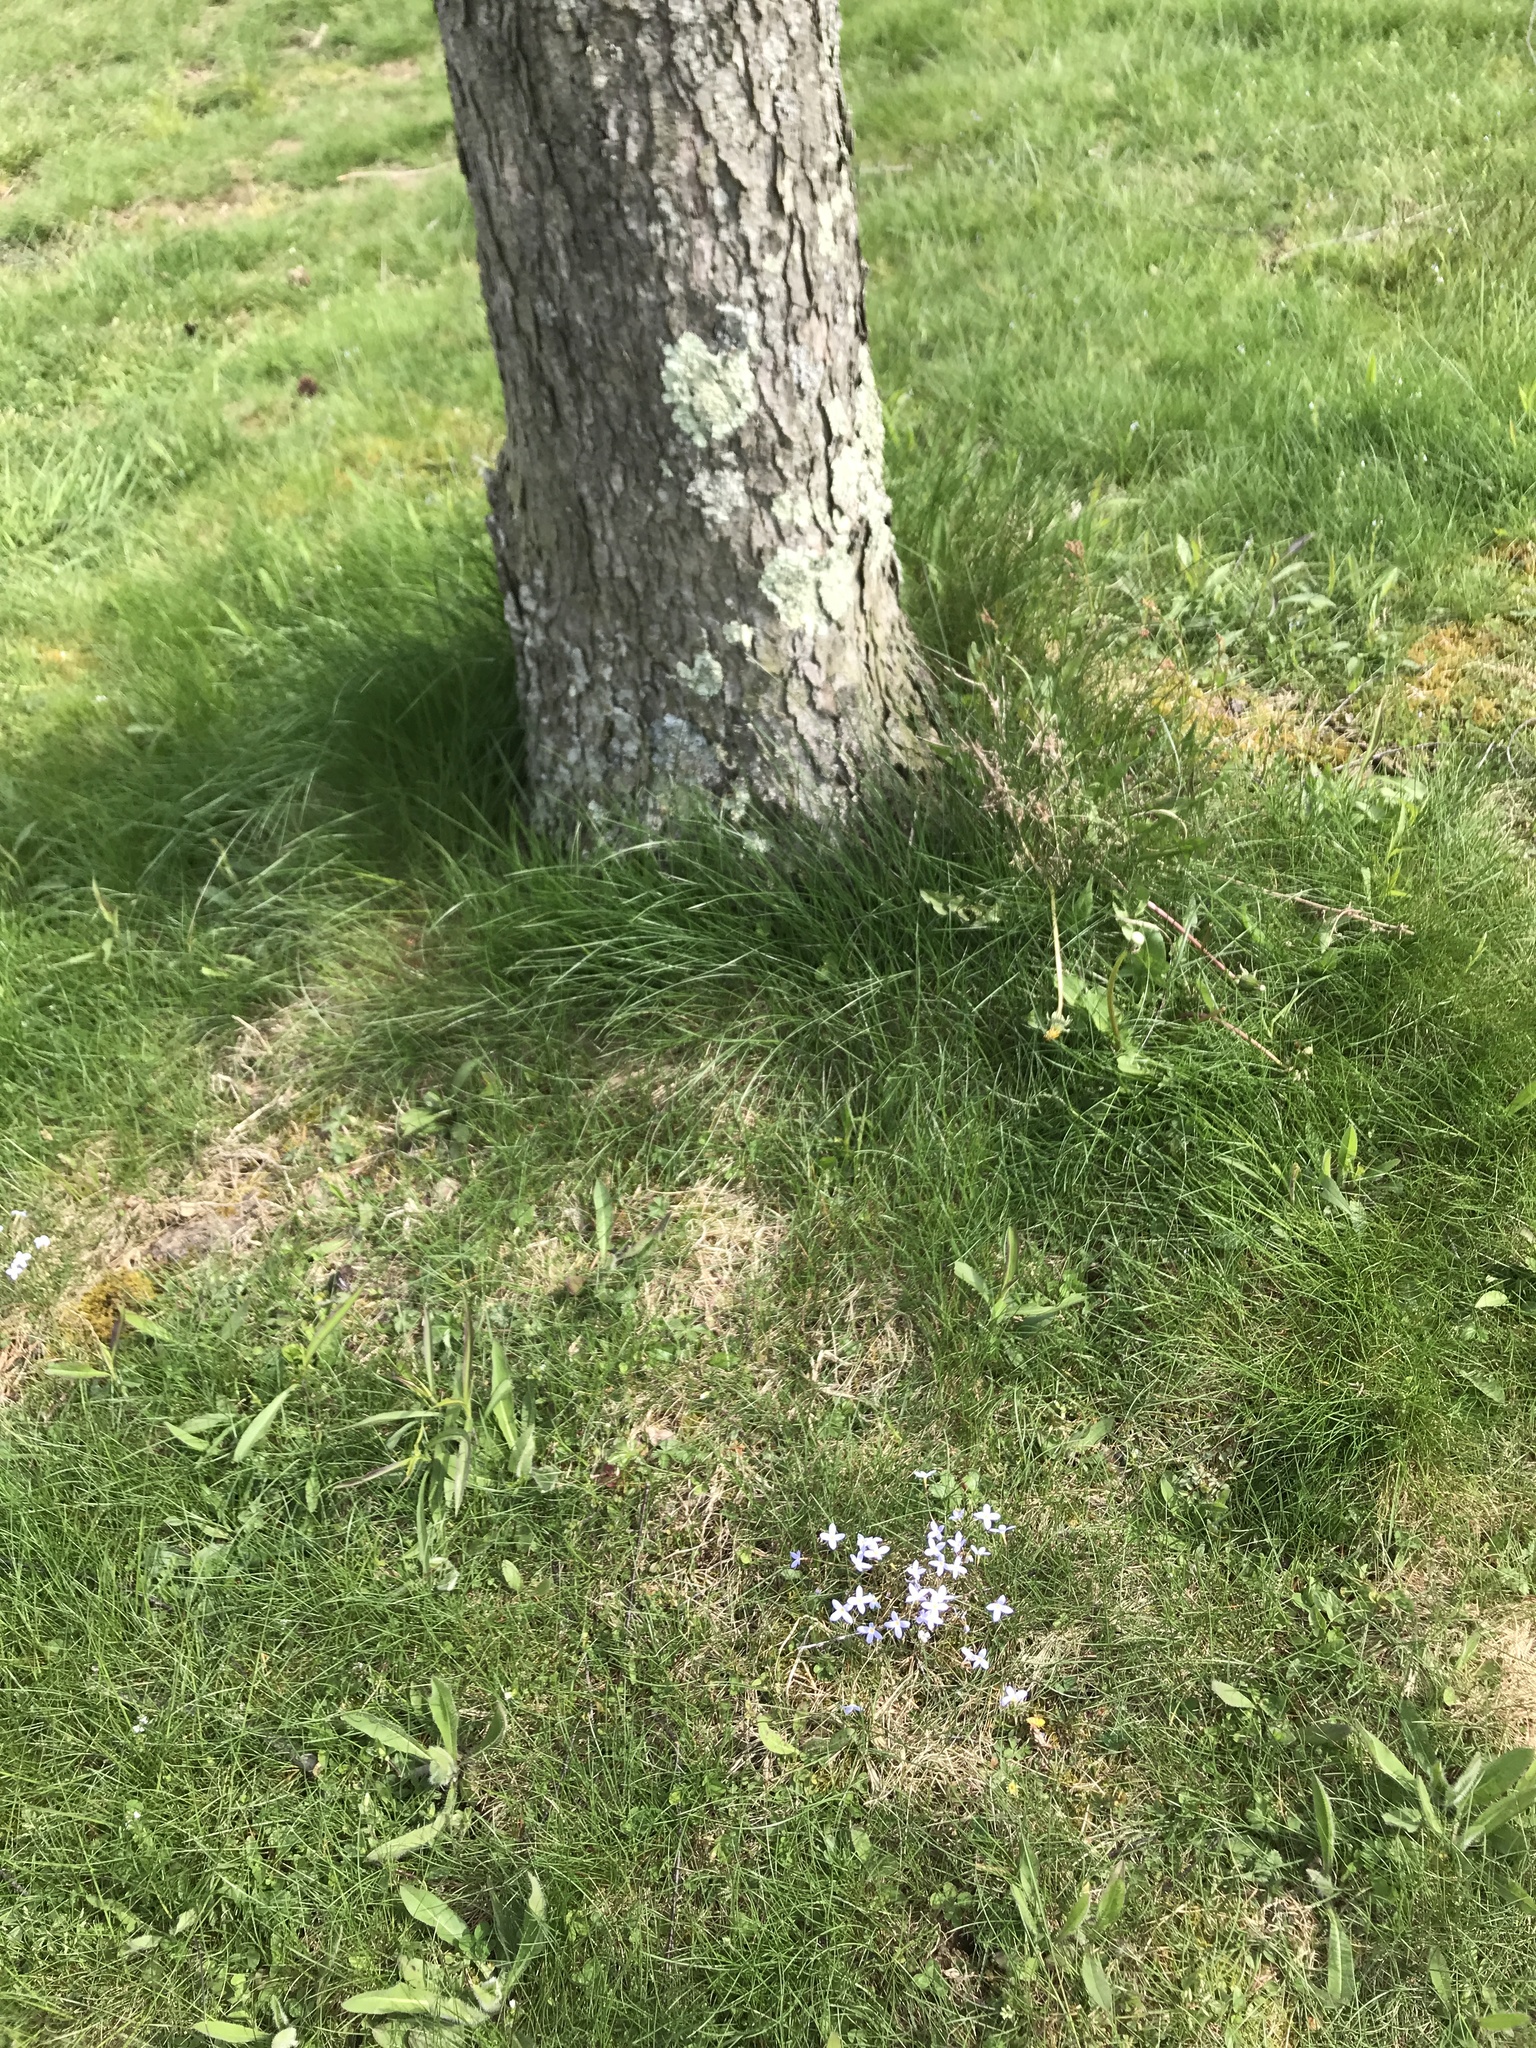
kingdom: Plantae
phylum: Tracheophyta
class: Magnoliopsida
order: Gentianales
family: Rubiaceae
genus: Houstonia
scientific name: Houstonia caerulea
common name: Bluets
